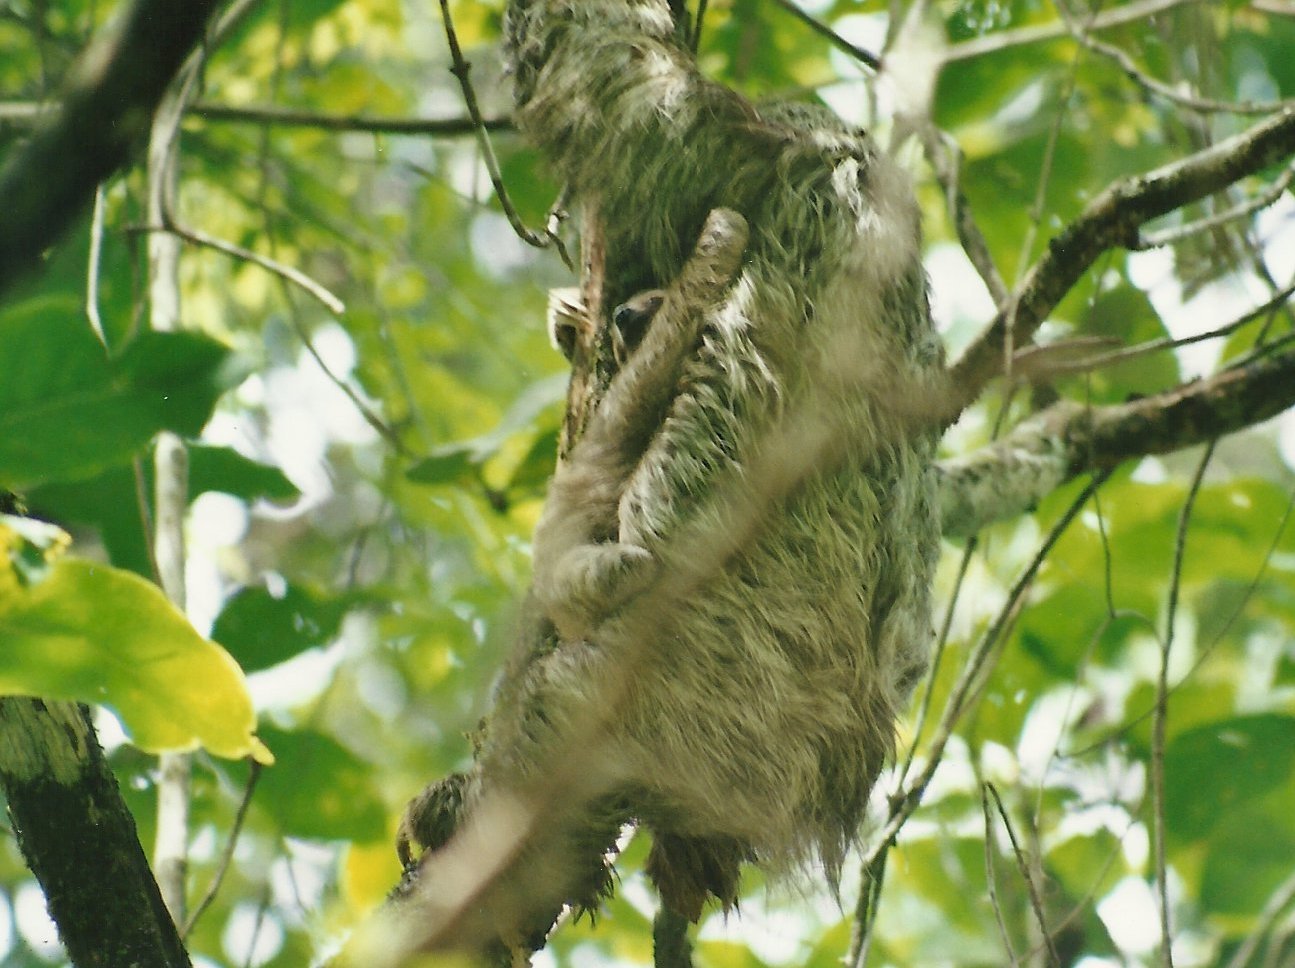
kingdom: Animalia
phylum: Chordata
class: Mammalia
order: Pilosa
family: Bradypodidae
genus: Bradypus
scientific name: Bradypus variegatus
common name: Brown-throated three-toed sloth
